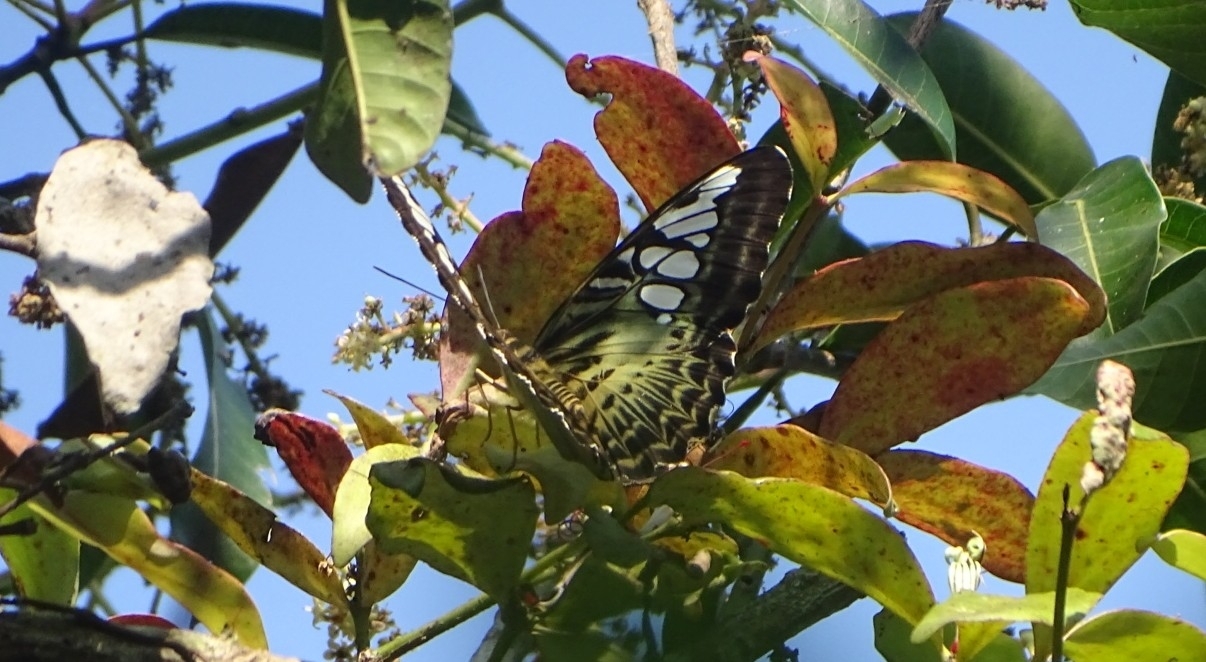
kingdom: Animalia
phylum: Arthropoda
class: Insecta
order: Lepidoptera
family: Nymphalidae
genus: Kallima
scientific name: Kallima sylvia
